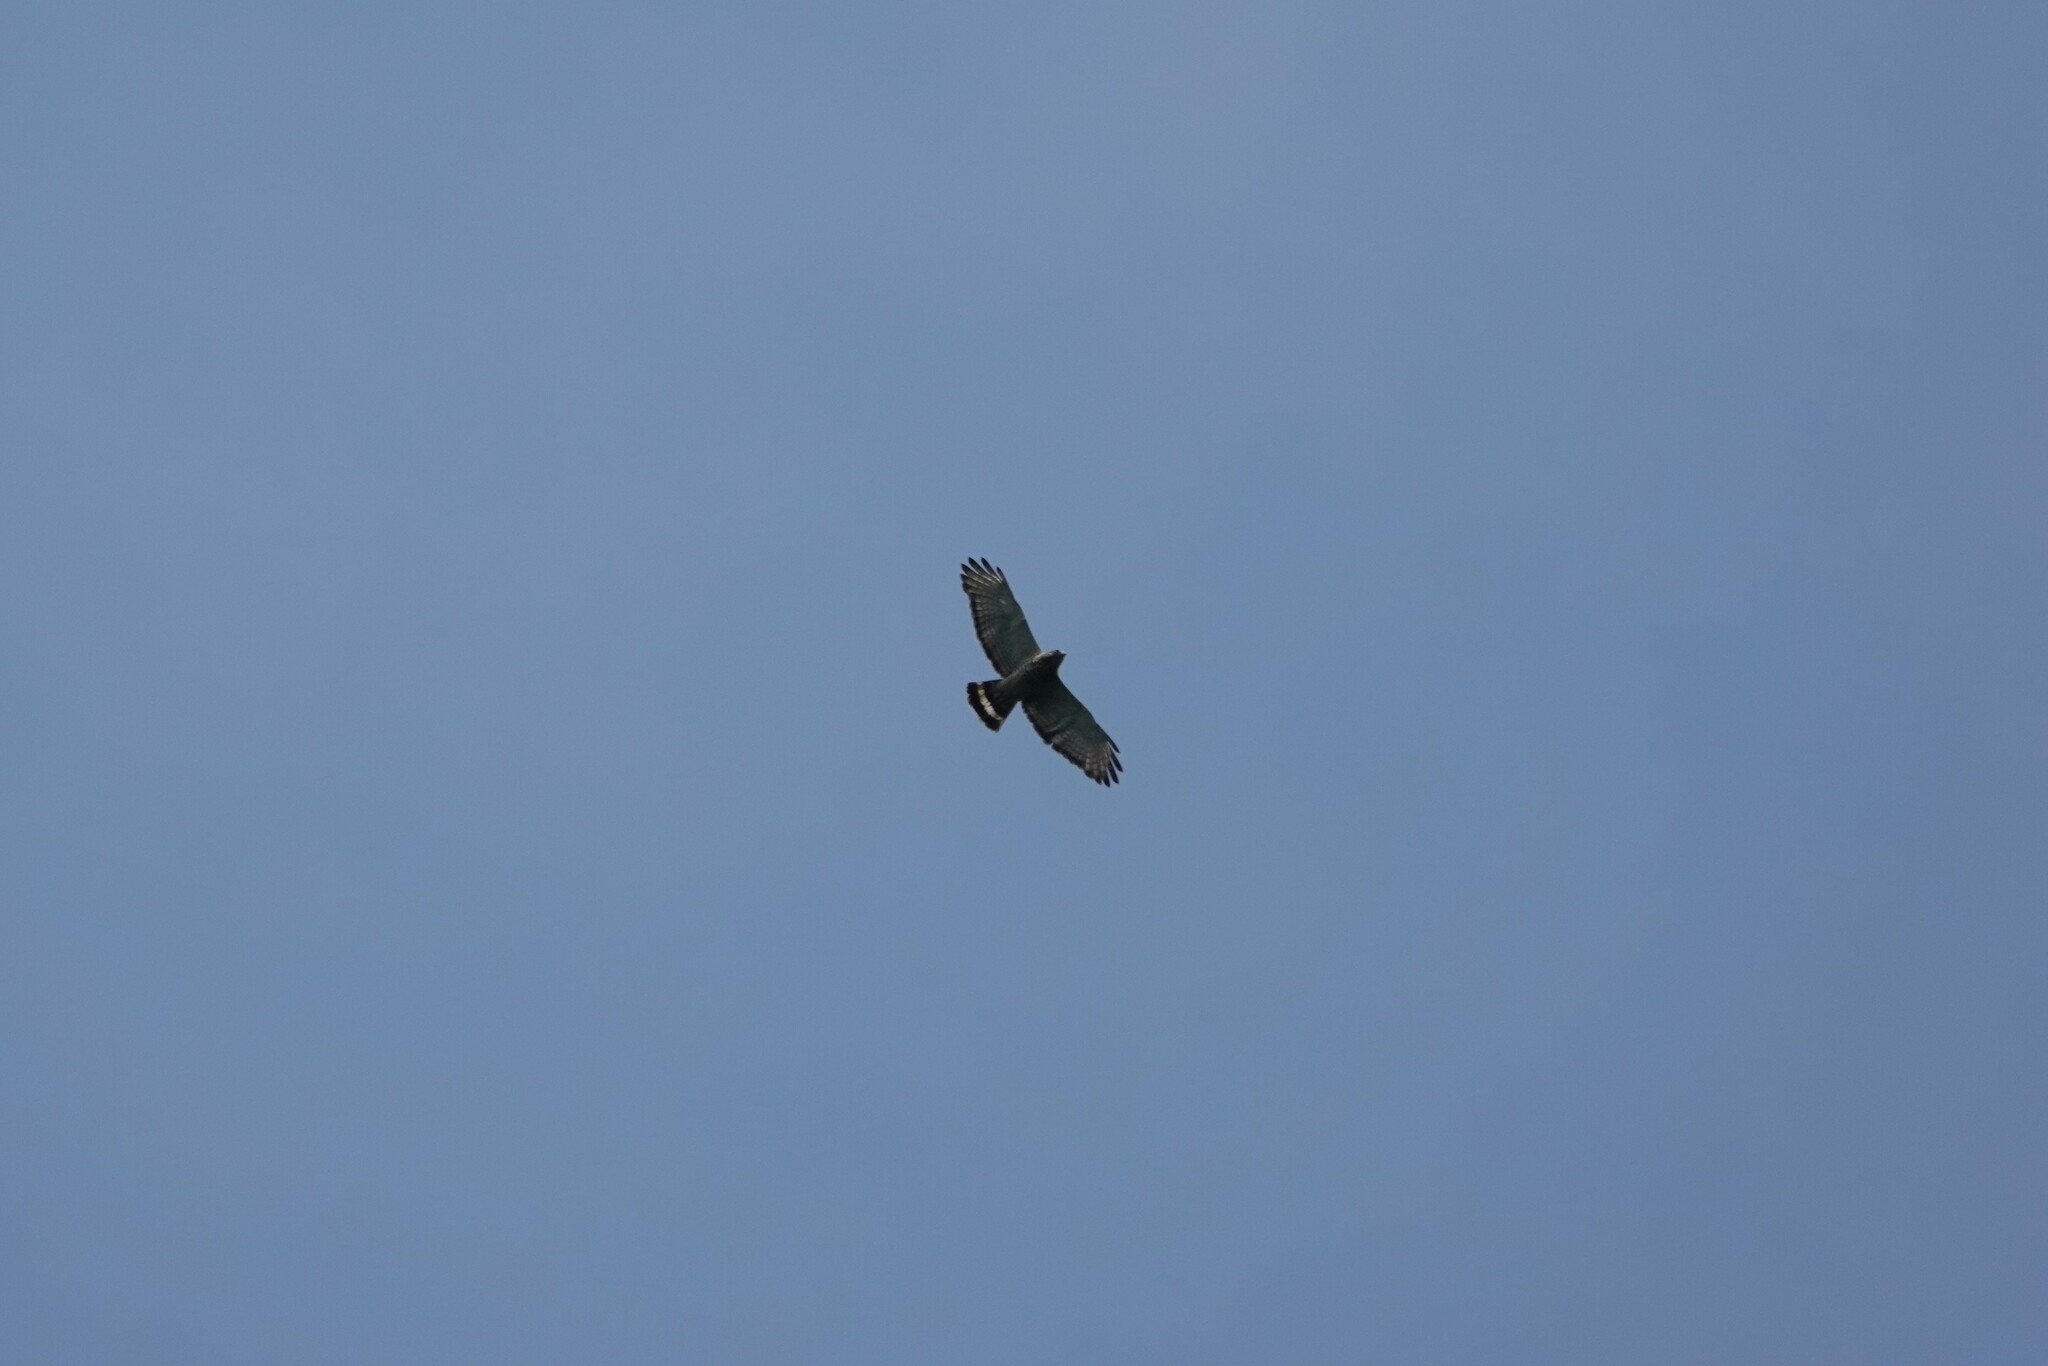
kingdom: Animalia
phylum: Chordata
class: Aves
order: Accipitriformes
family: Accipitridae
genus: Buteo
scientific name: Buteo platypterus
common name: Broad-winged hawk
